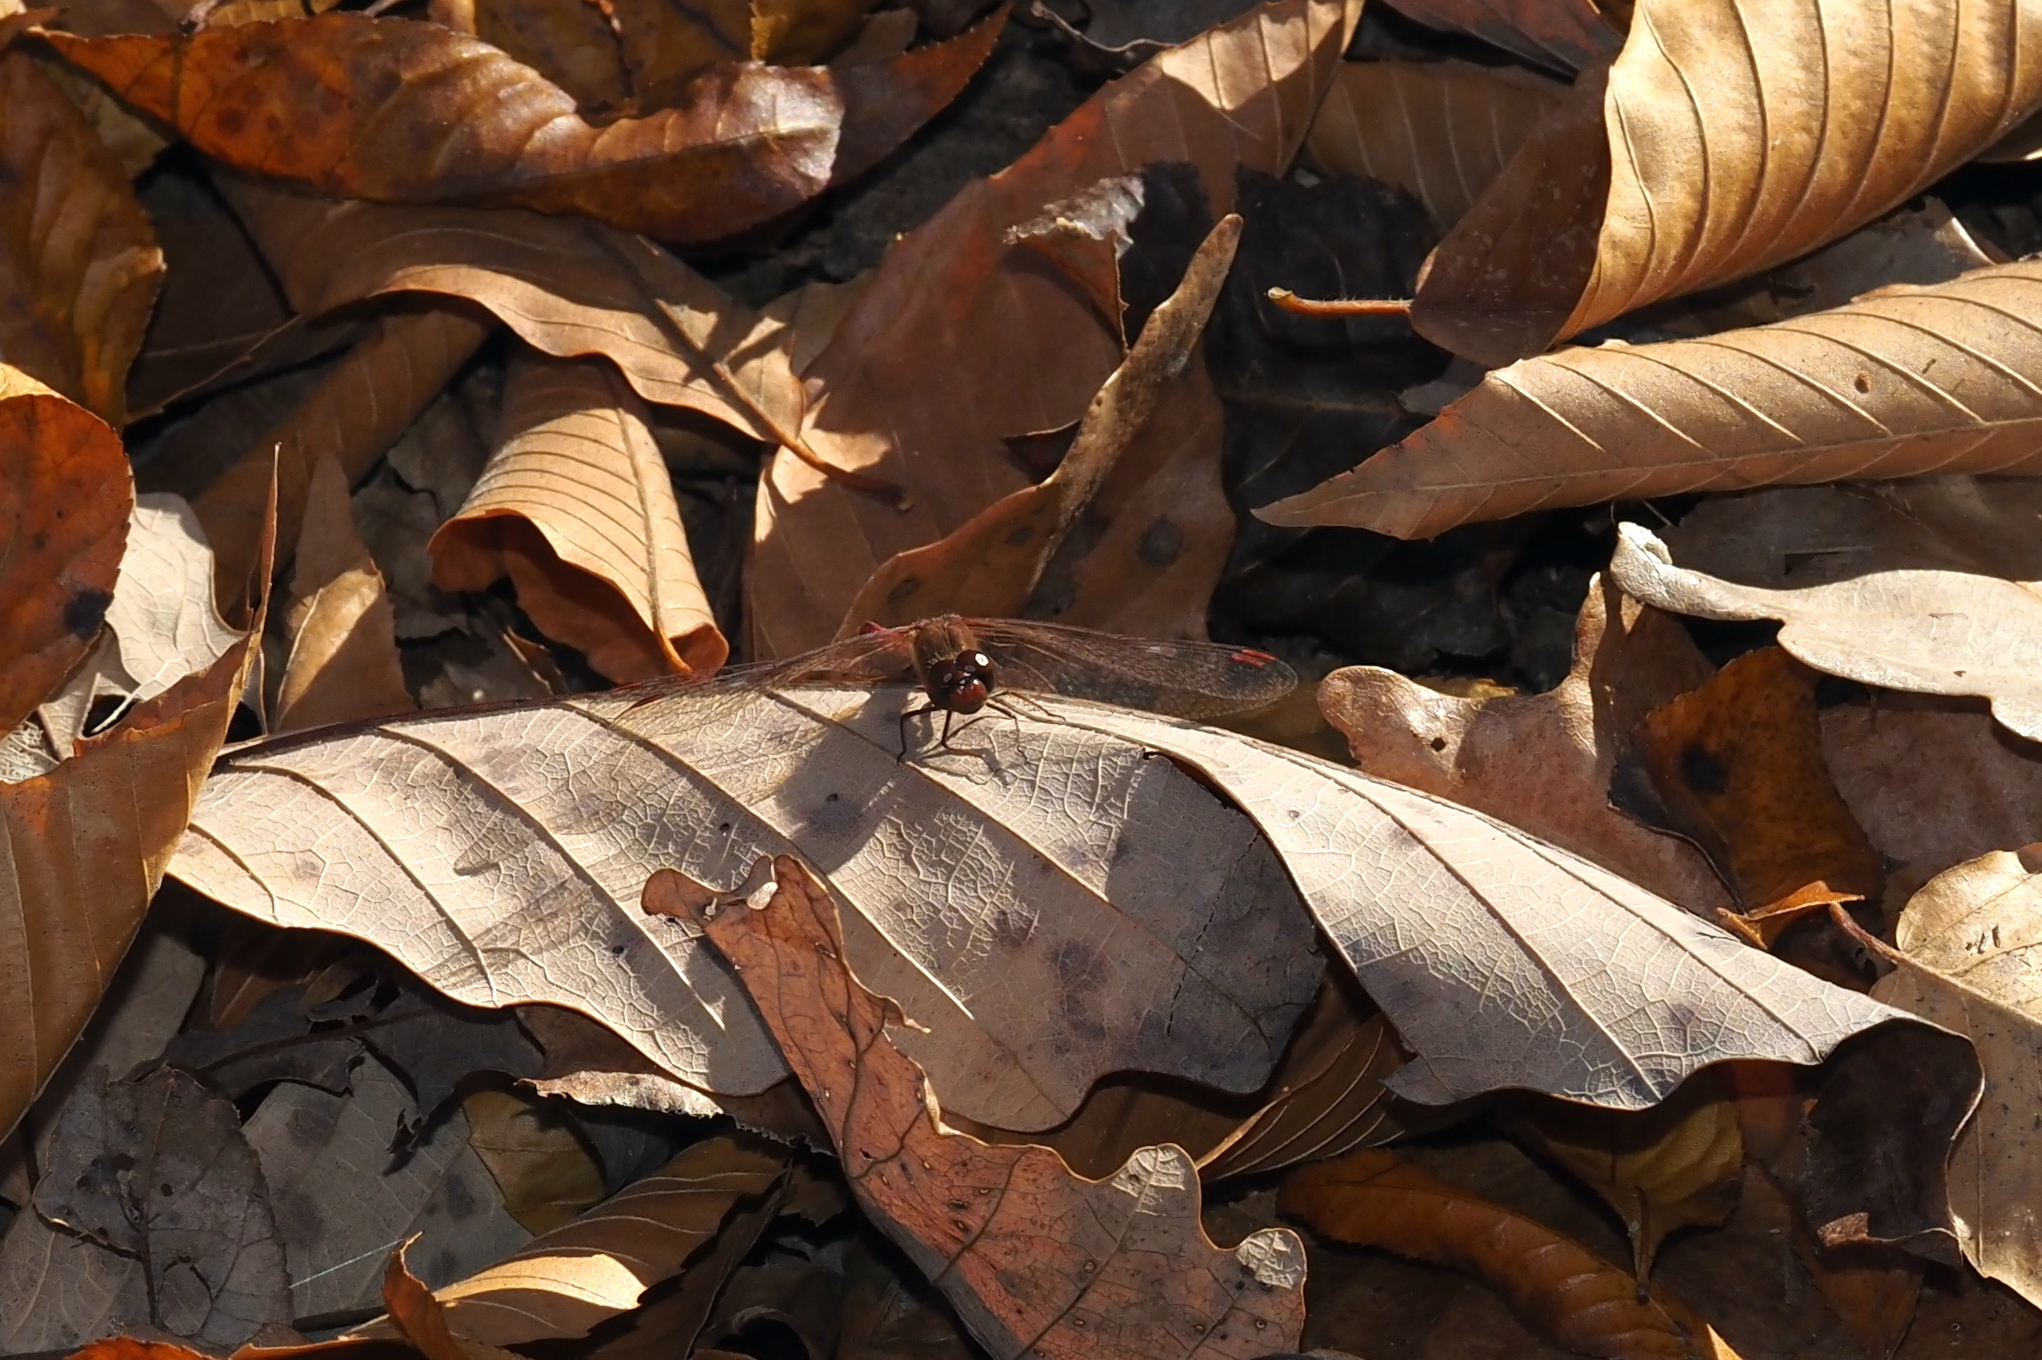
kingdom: Animalia
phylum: Arthropoda
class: Insecta
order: Odonata
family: Libellulidae
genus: Sympetrum
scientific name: Sympetrum vicinum
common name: Autumn meadowhawk
